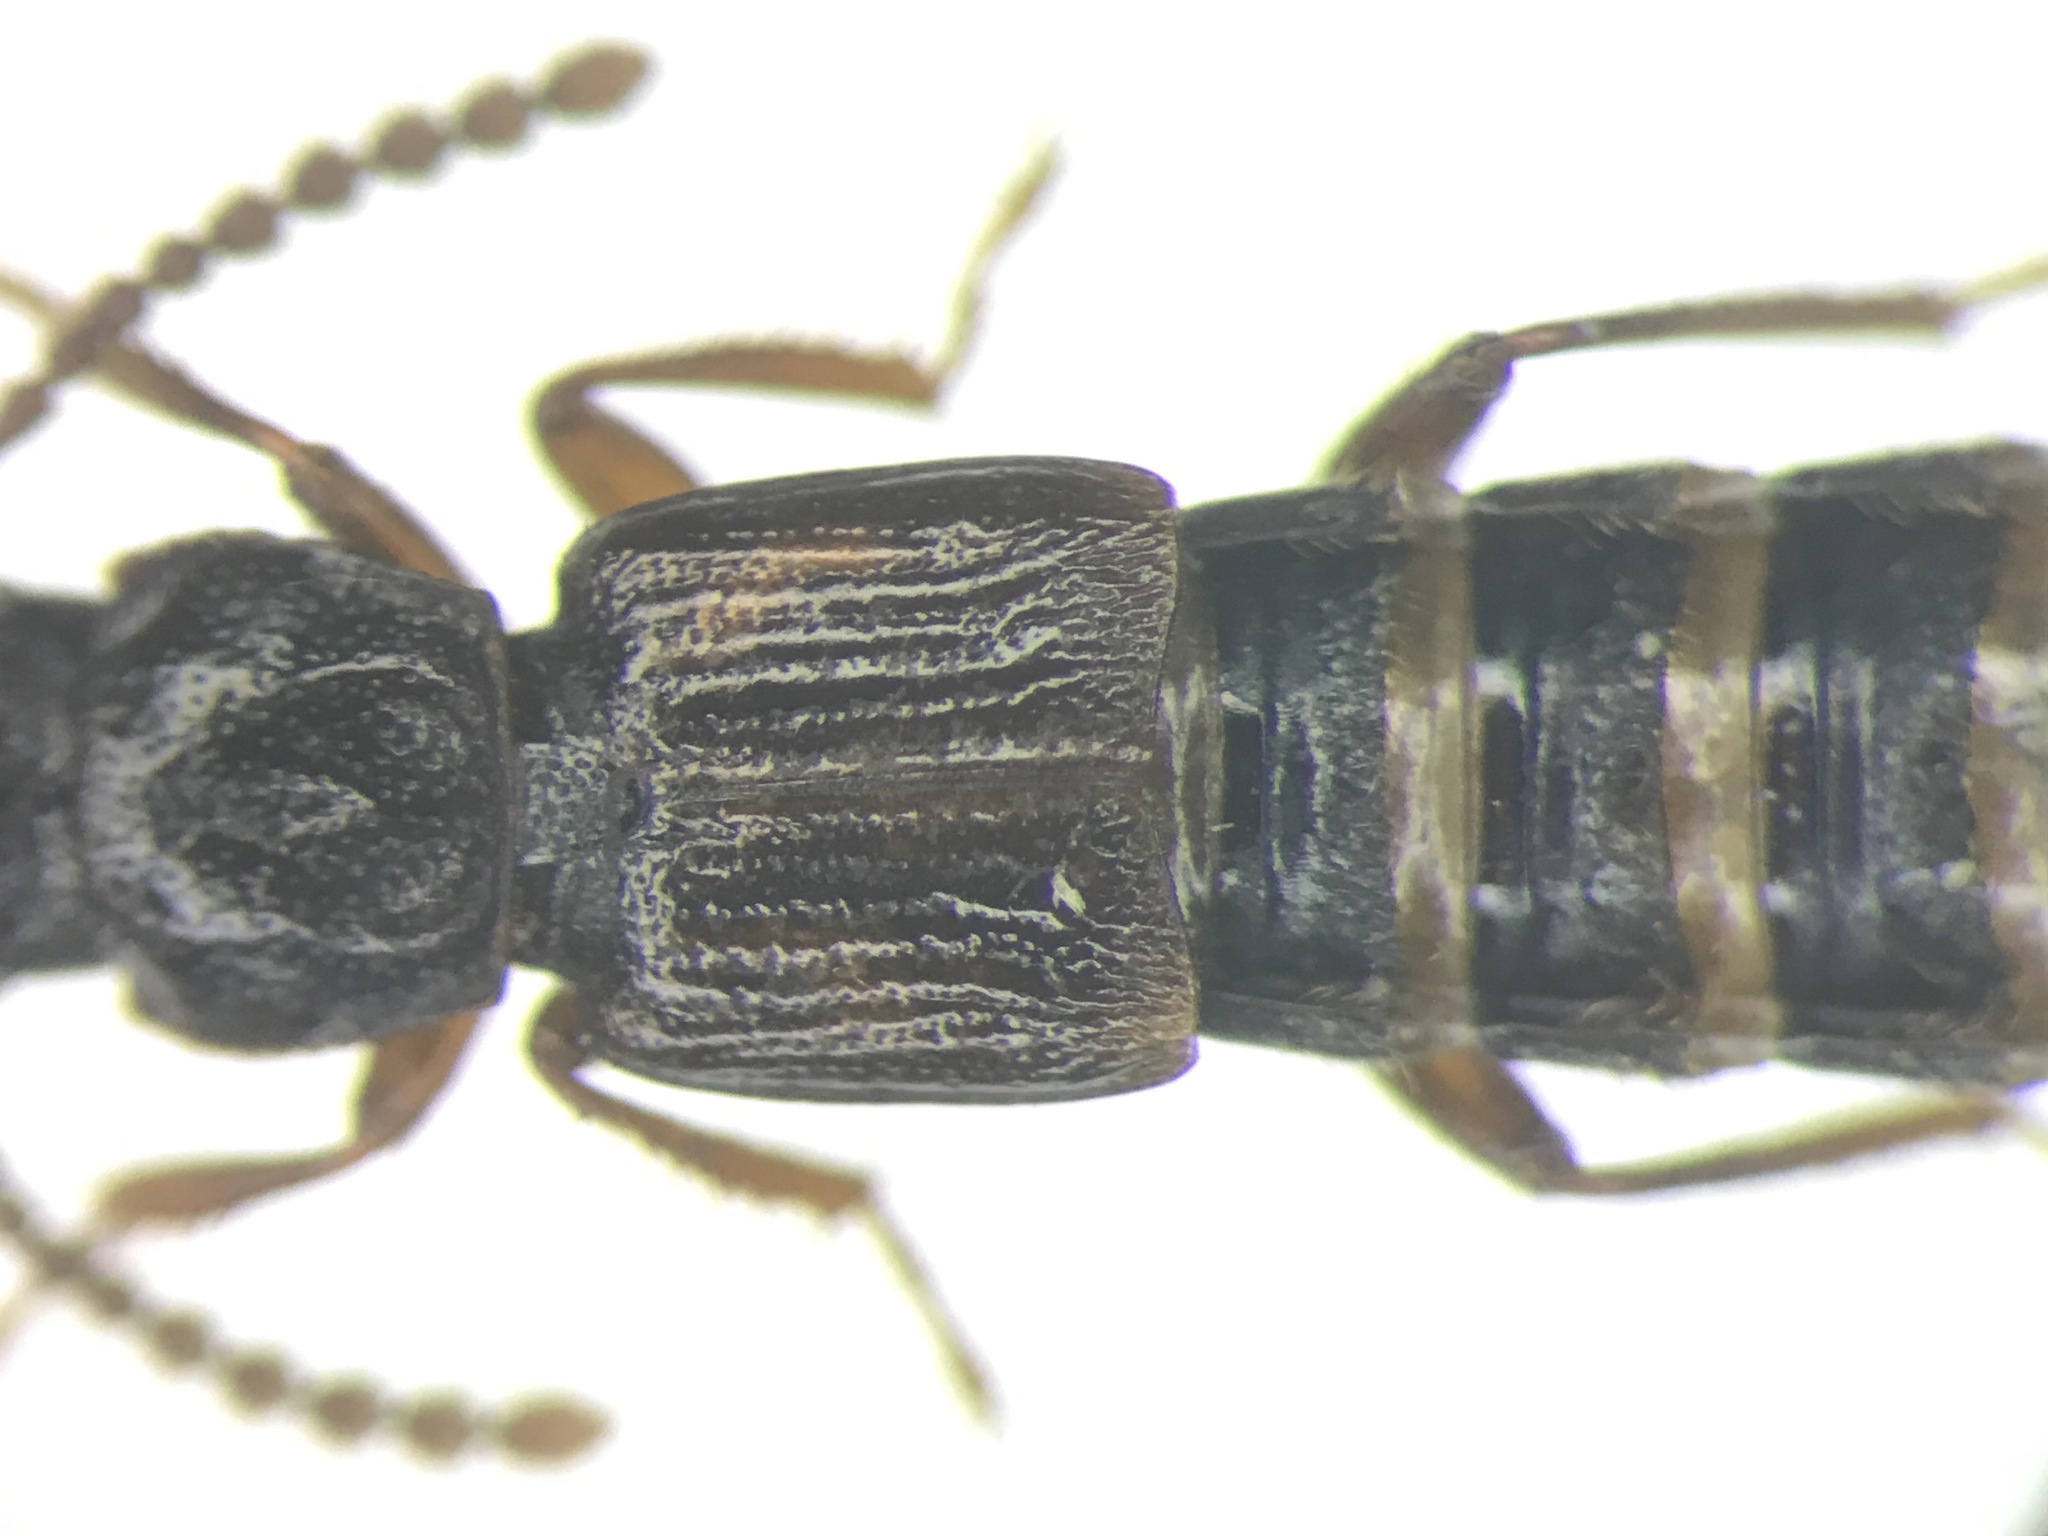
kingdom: Animalia
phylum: Arthropoda
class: Insecta
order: Coleoptera
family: Staphylinidae
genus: Coprophilus
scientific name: Coprophilus striatulus
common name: Rove beetle
